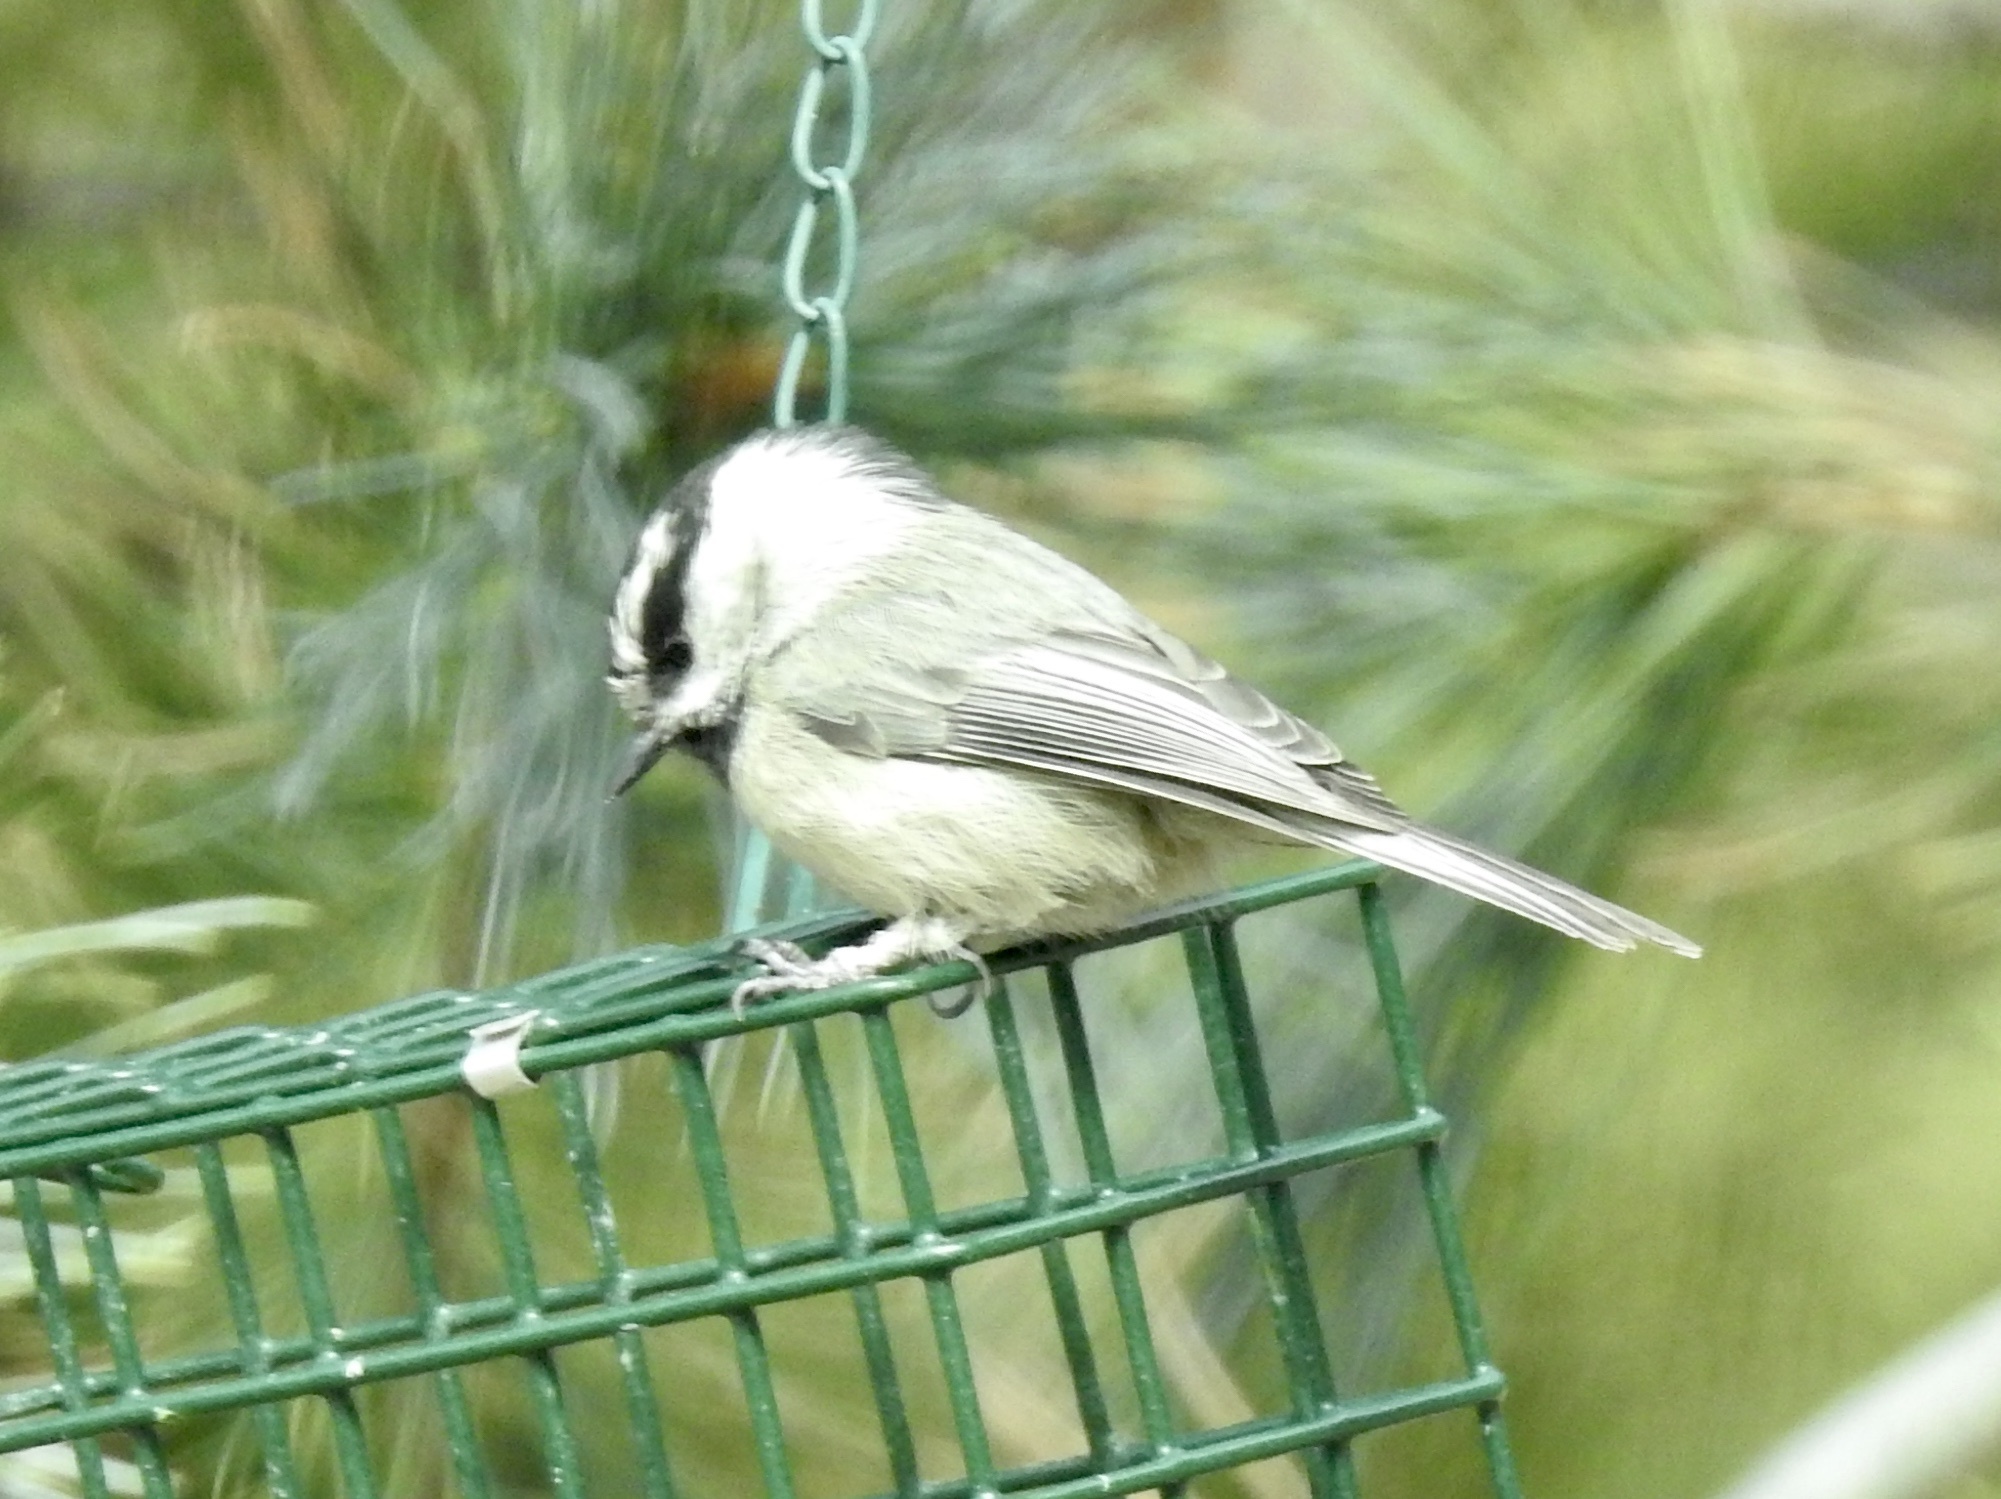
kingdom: Animalia
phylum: Chordata
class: Aves
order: Passeriformes
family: Paridae
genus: Poecile
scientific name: Poecile gambeli
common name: Mountain chickadee
